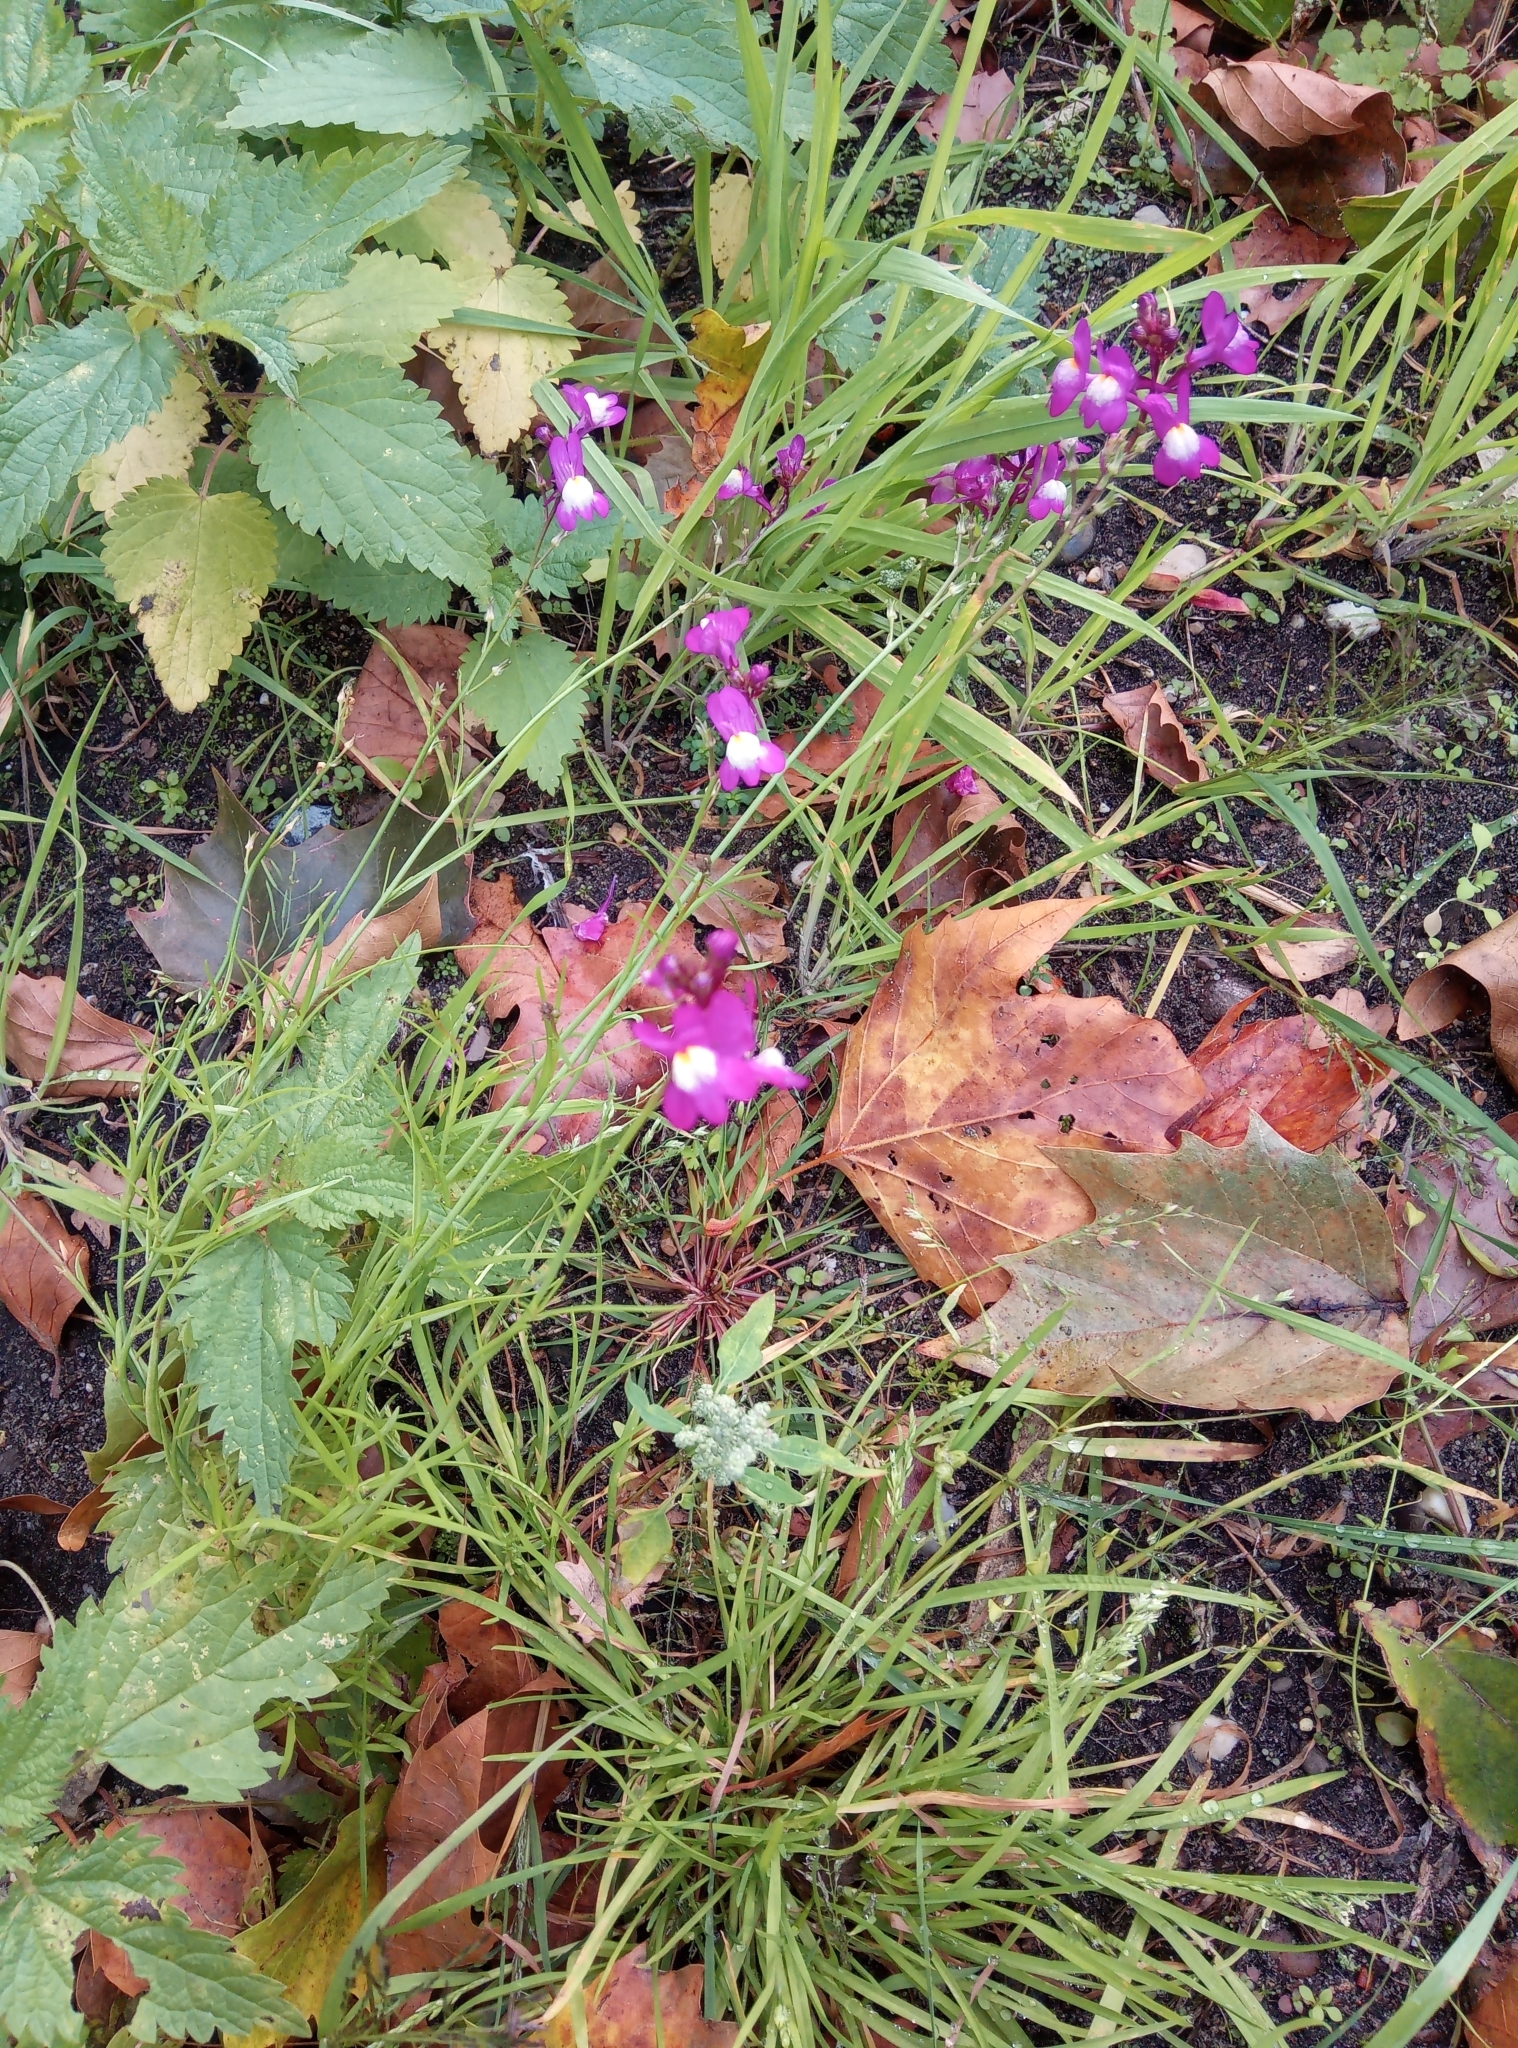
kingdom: Plantae
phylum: Tracheophyta
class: Magnoliopsida
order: Lamiales
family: Plantaginaceae
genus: Linaria
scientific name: Linaria maroccana
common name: Moroccan toadflax
